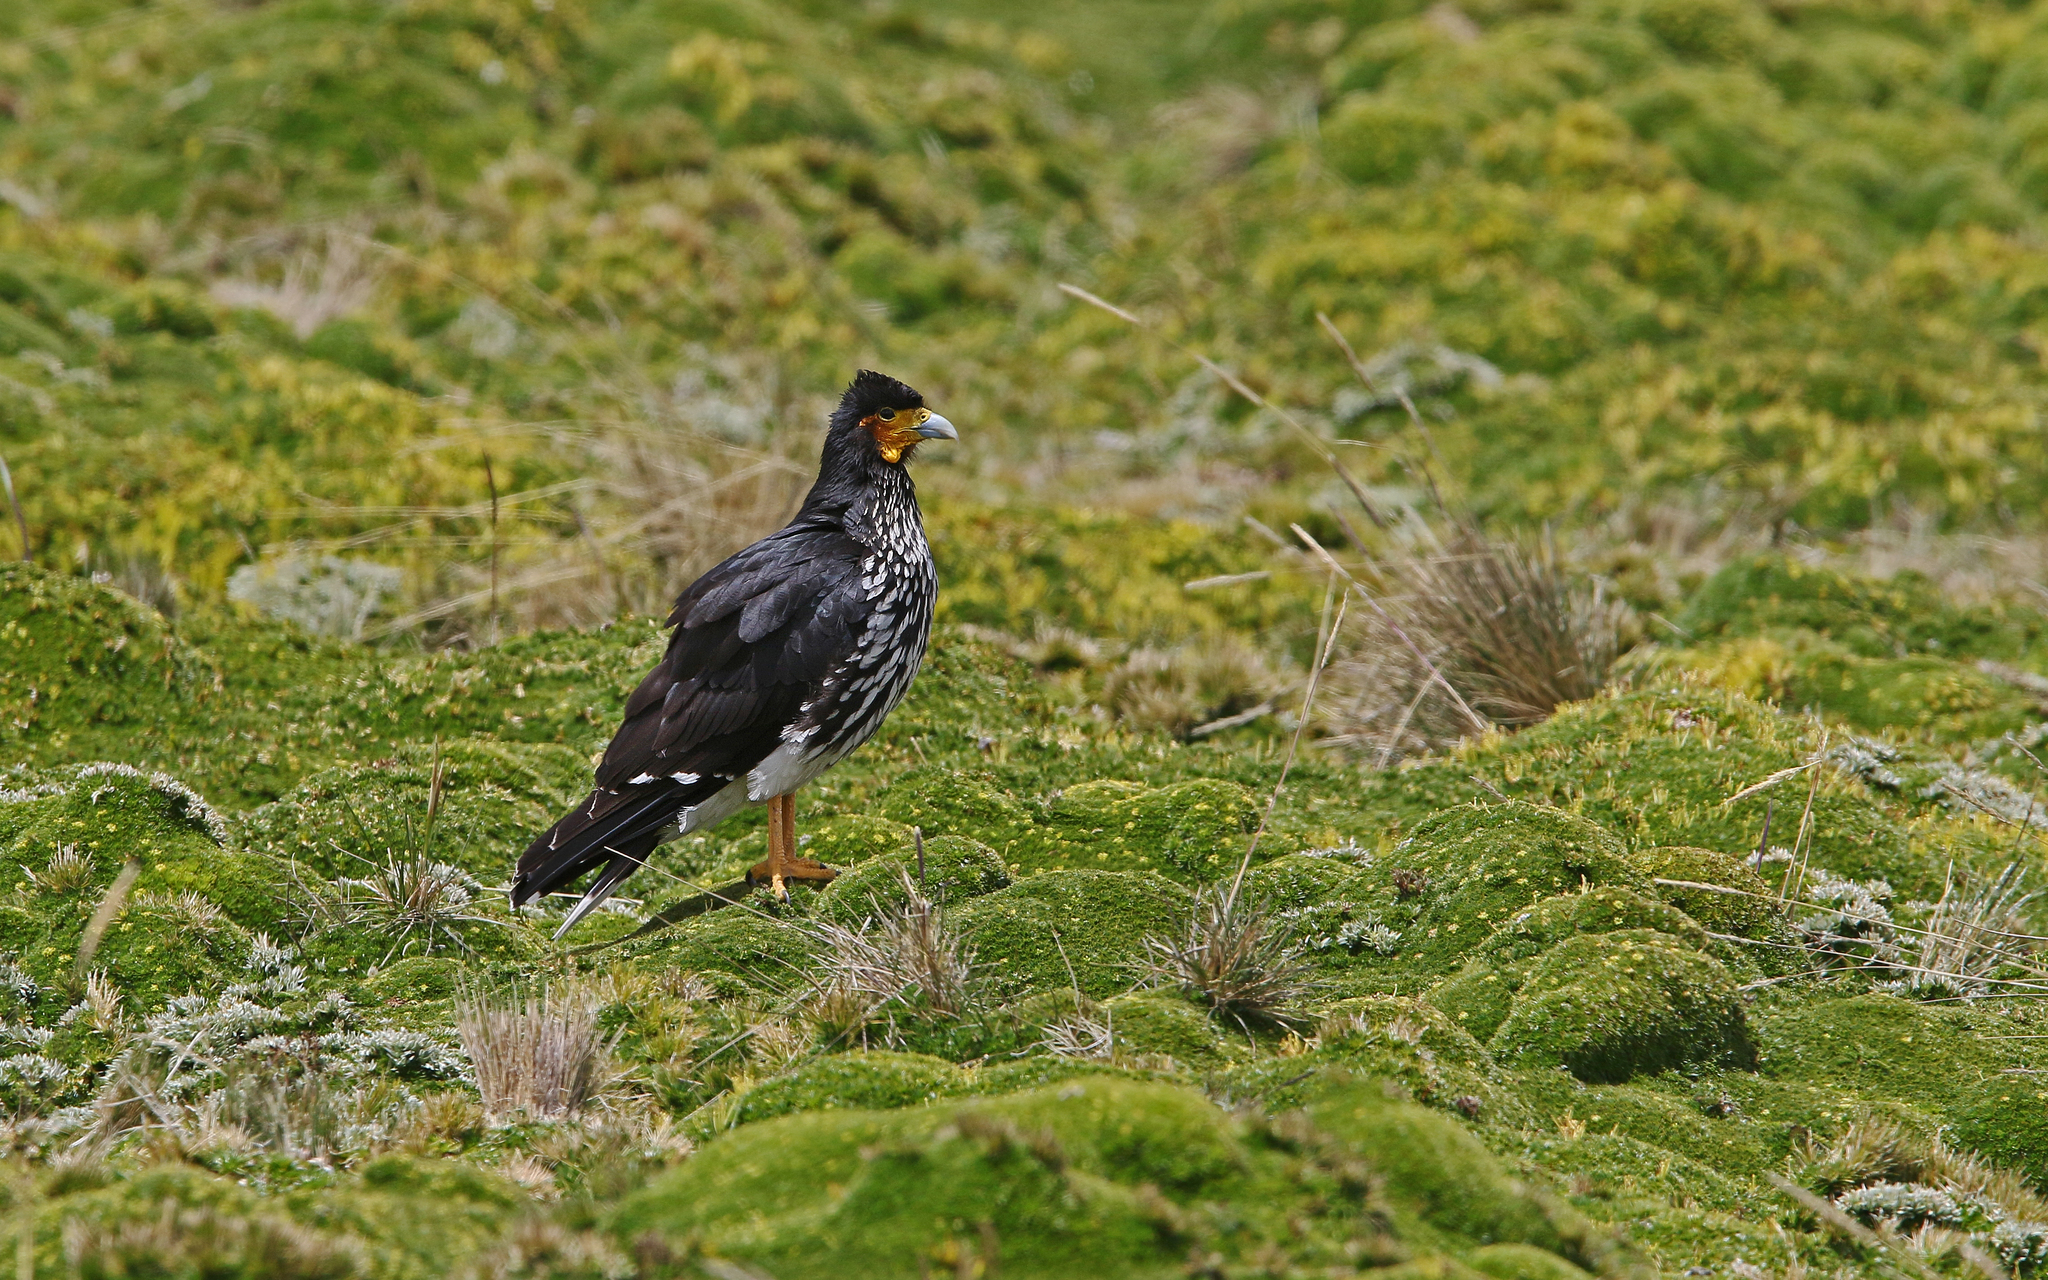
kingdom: Animalia
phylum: Chordata
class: Aves
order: Falconiformes
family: Falconidae
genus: Daptrius
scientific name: Daptrius
